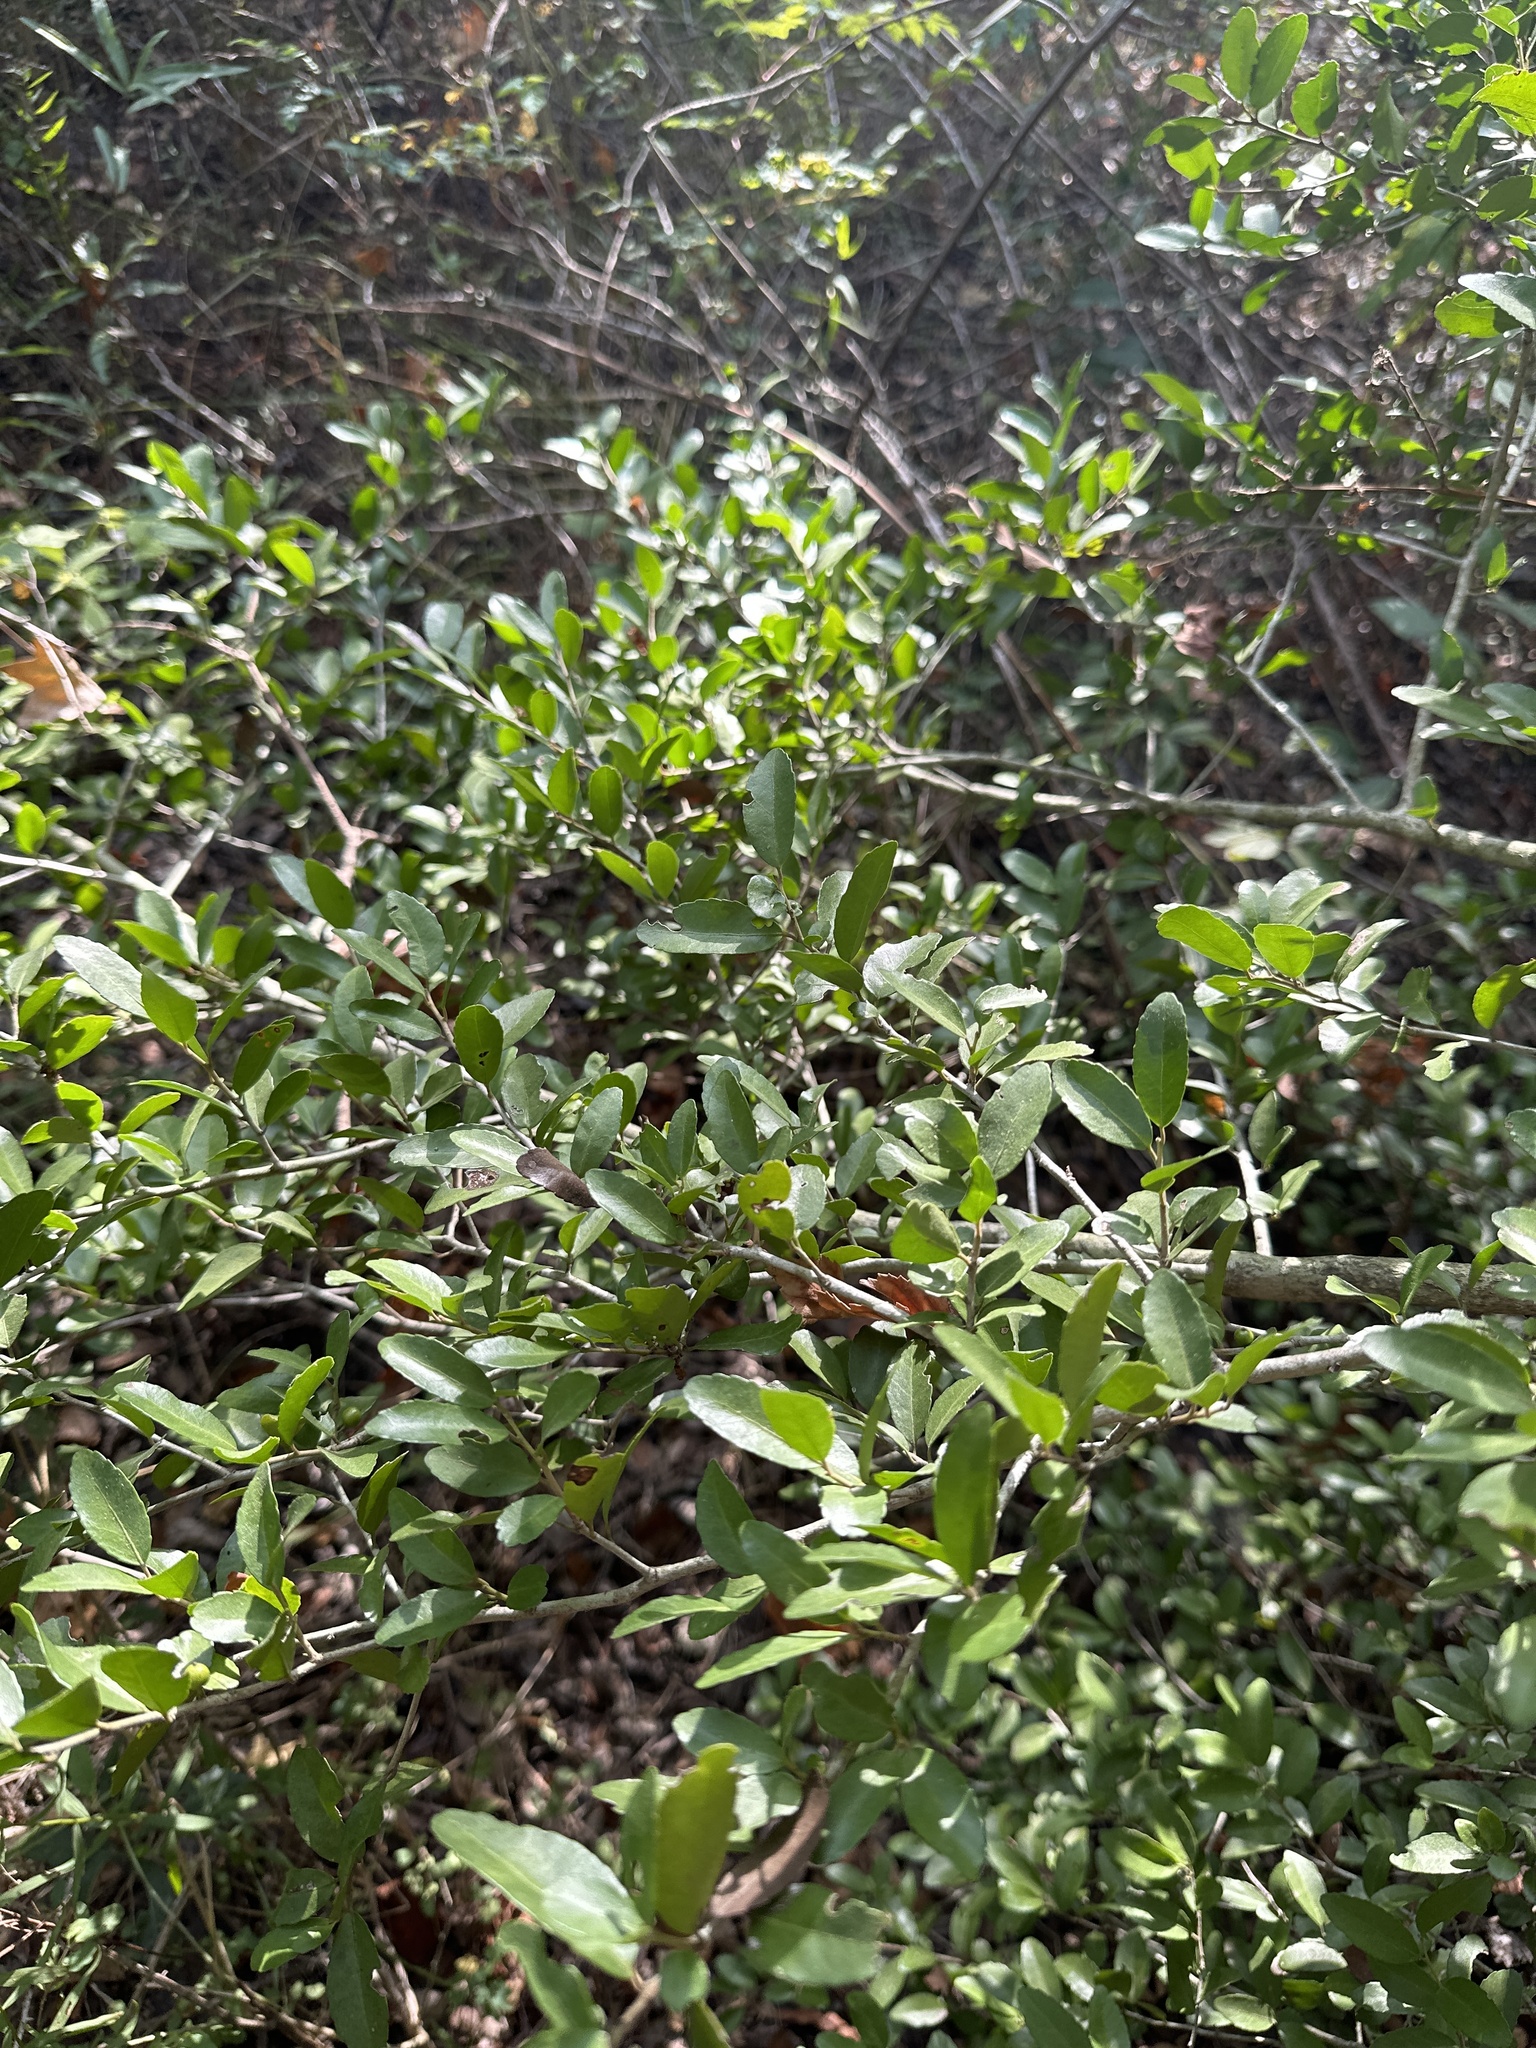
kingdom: Plantae
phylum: Tracheophyta
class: Magnoliopsida
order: Aquifoliales
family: Aquifoliaceae
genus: Ilex
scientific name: Ilex vomitoria
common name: Yaupon holly
